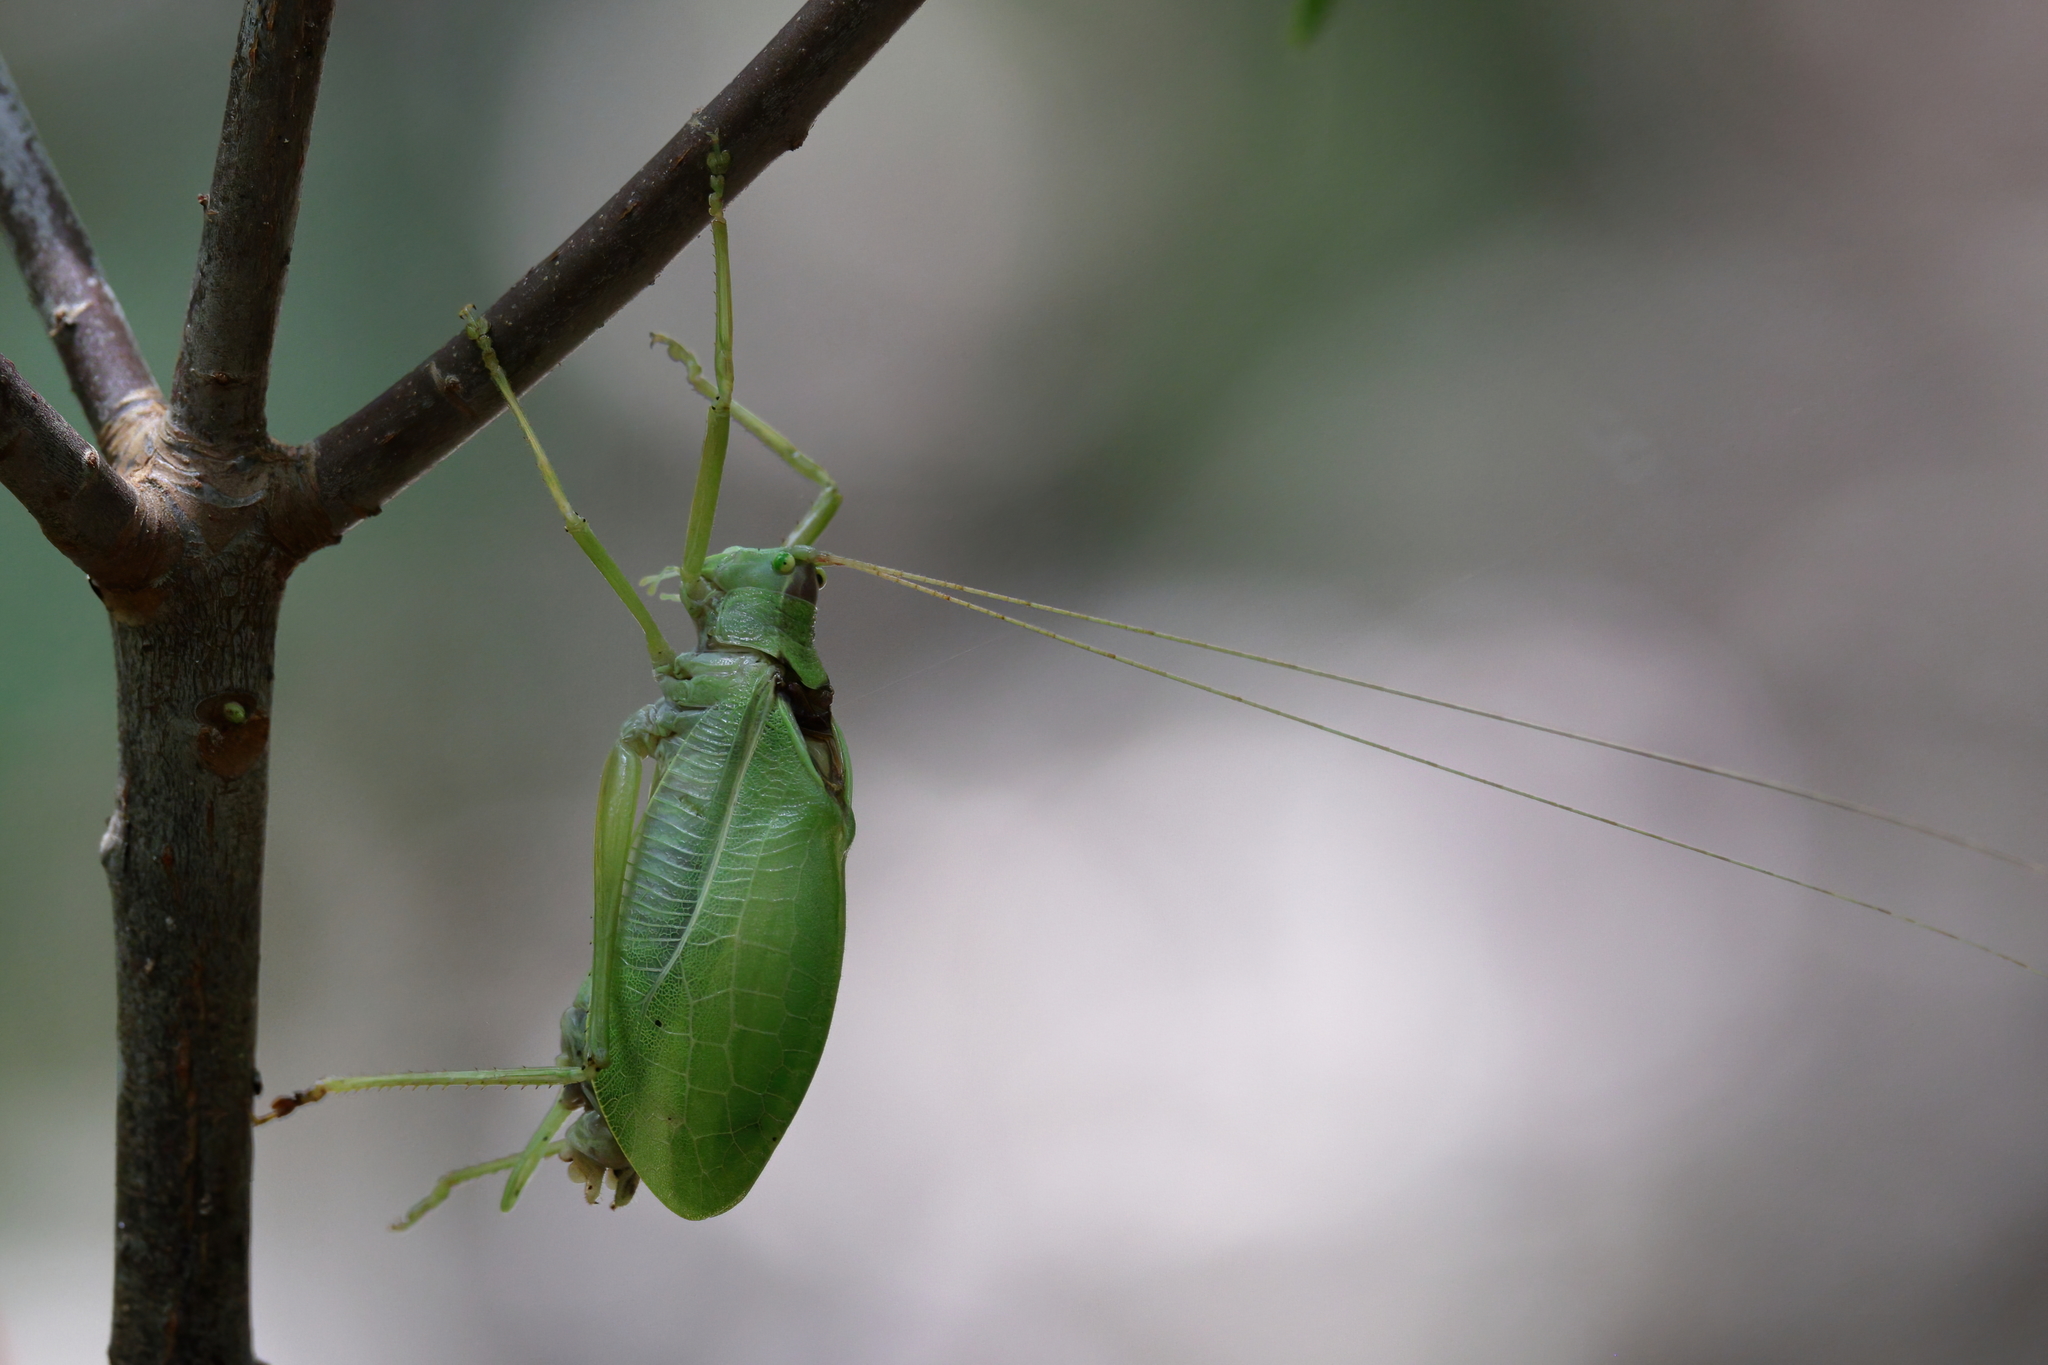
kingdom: Animalia
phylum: Arthropoda
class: Insecta
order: Orthoptera
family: Tettigoniidae
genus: Pterophylla
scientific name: Pterophylla camellifolia
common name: Common true katydid
